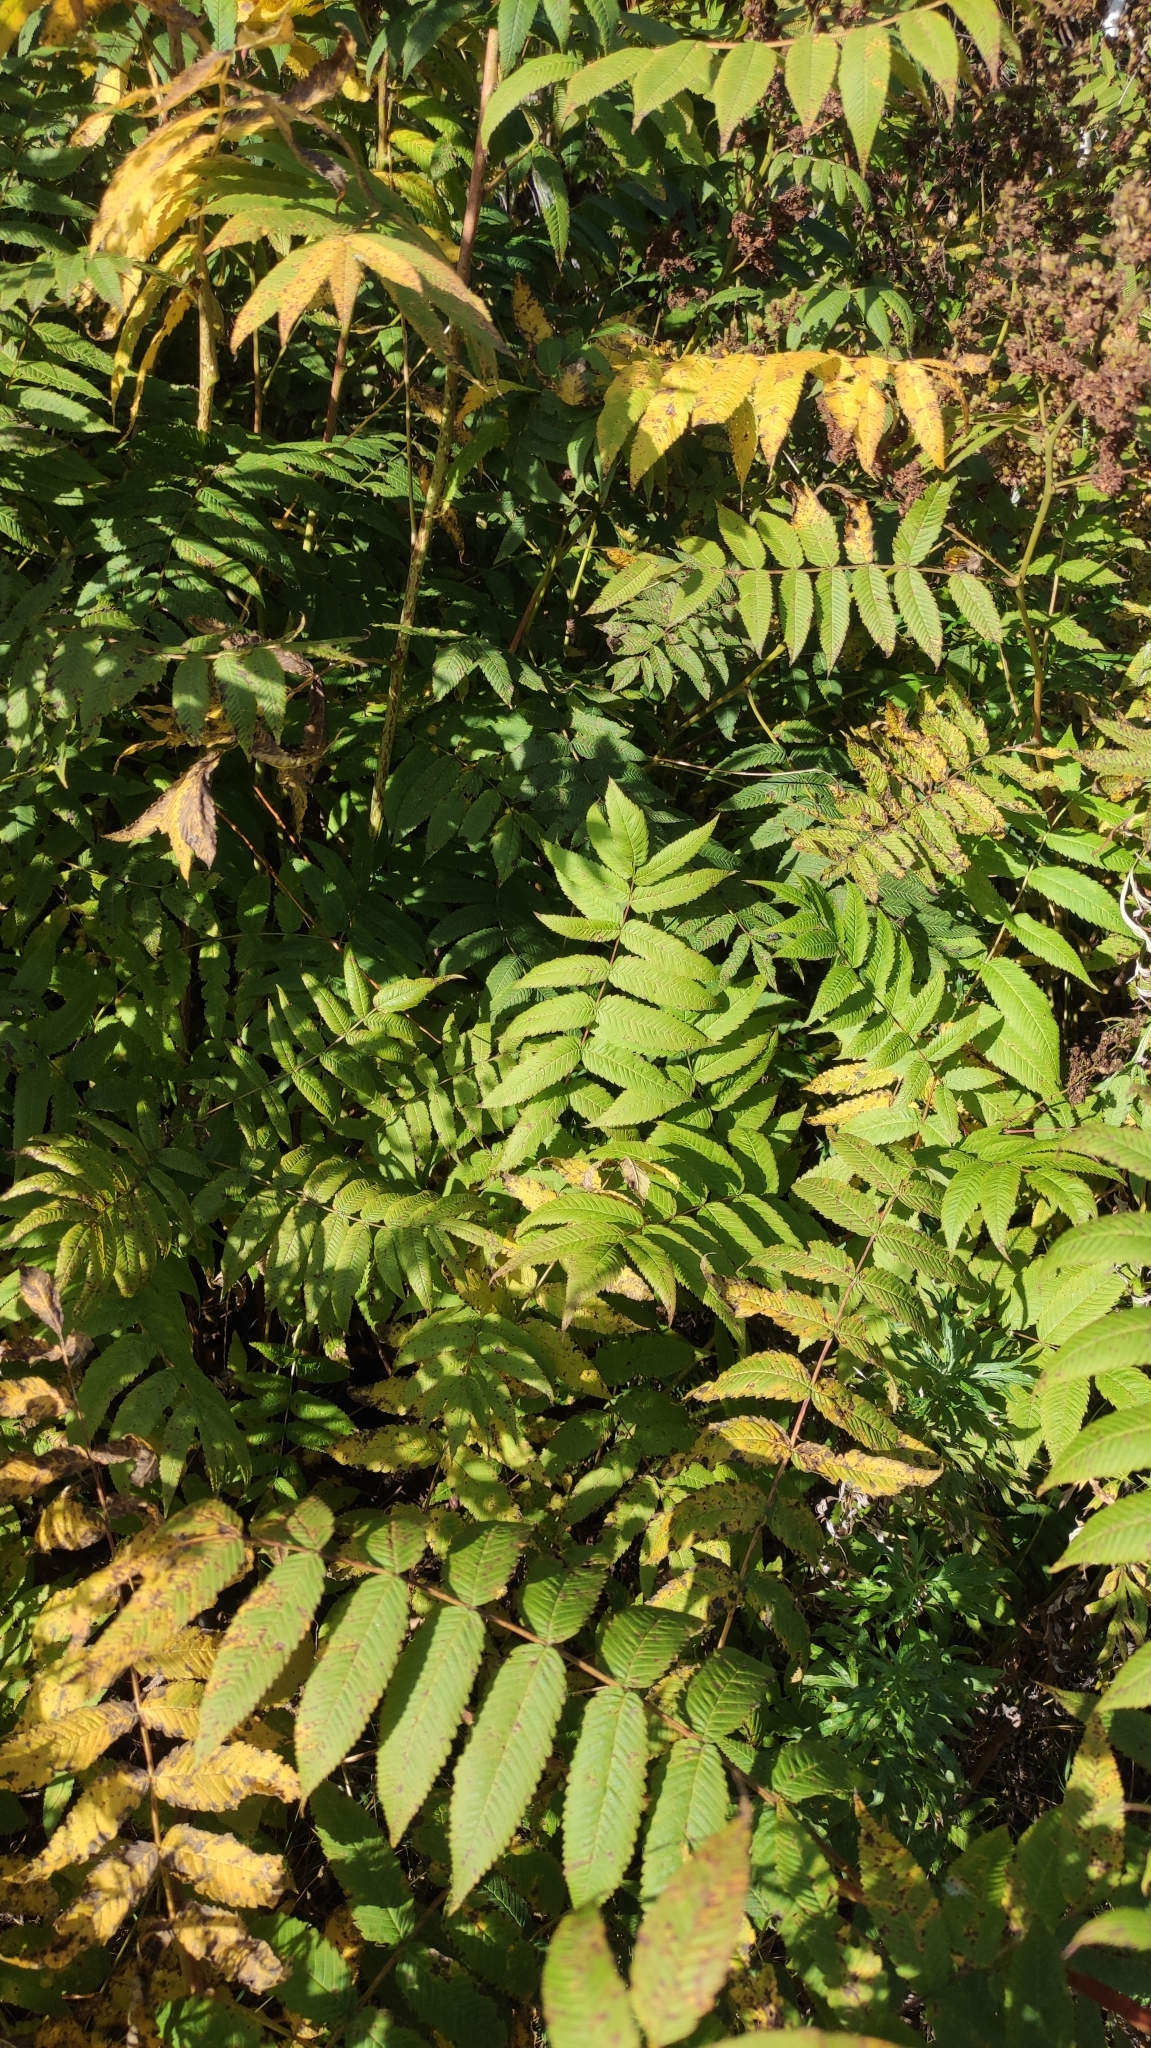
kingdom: Plantae
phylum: Tracheophyta
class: Magnoliopsida
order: Rosales
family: Rosaceae
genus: Sorbaria
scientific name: Sorbaria sorbifolia
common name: False spiraea
